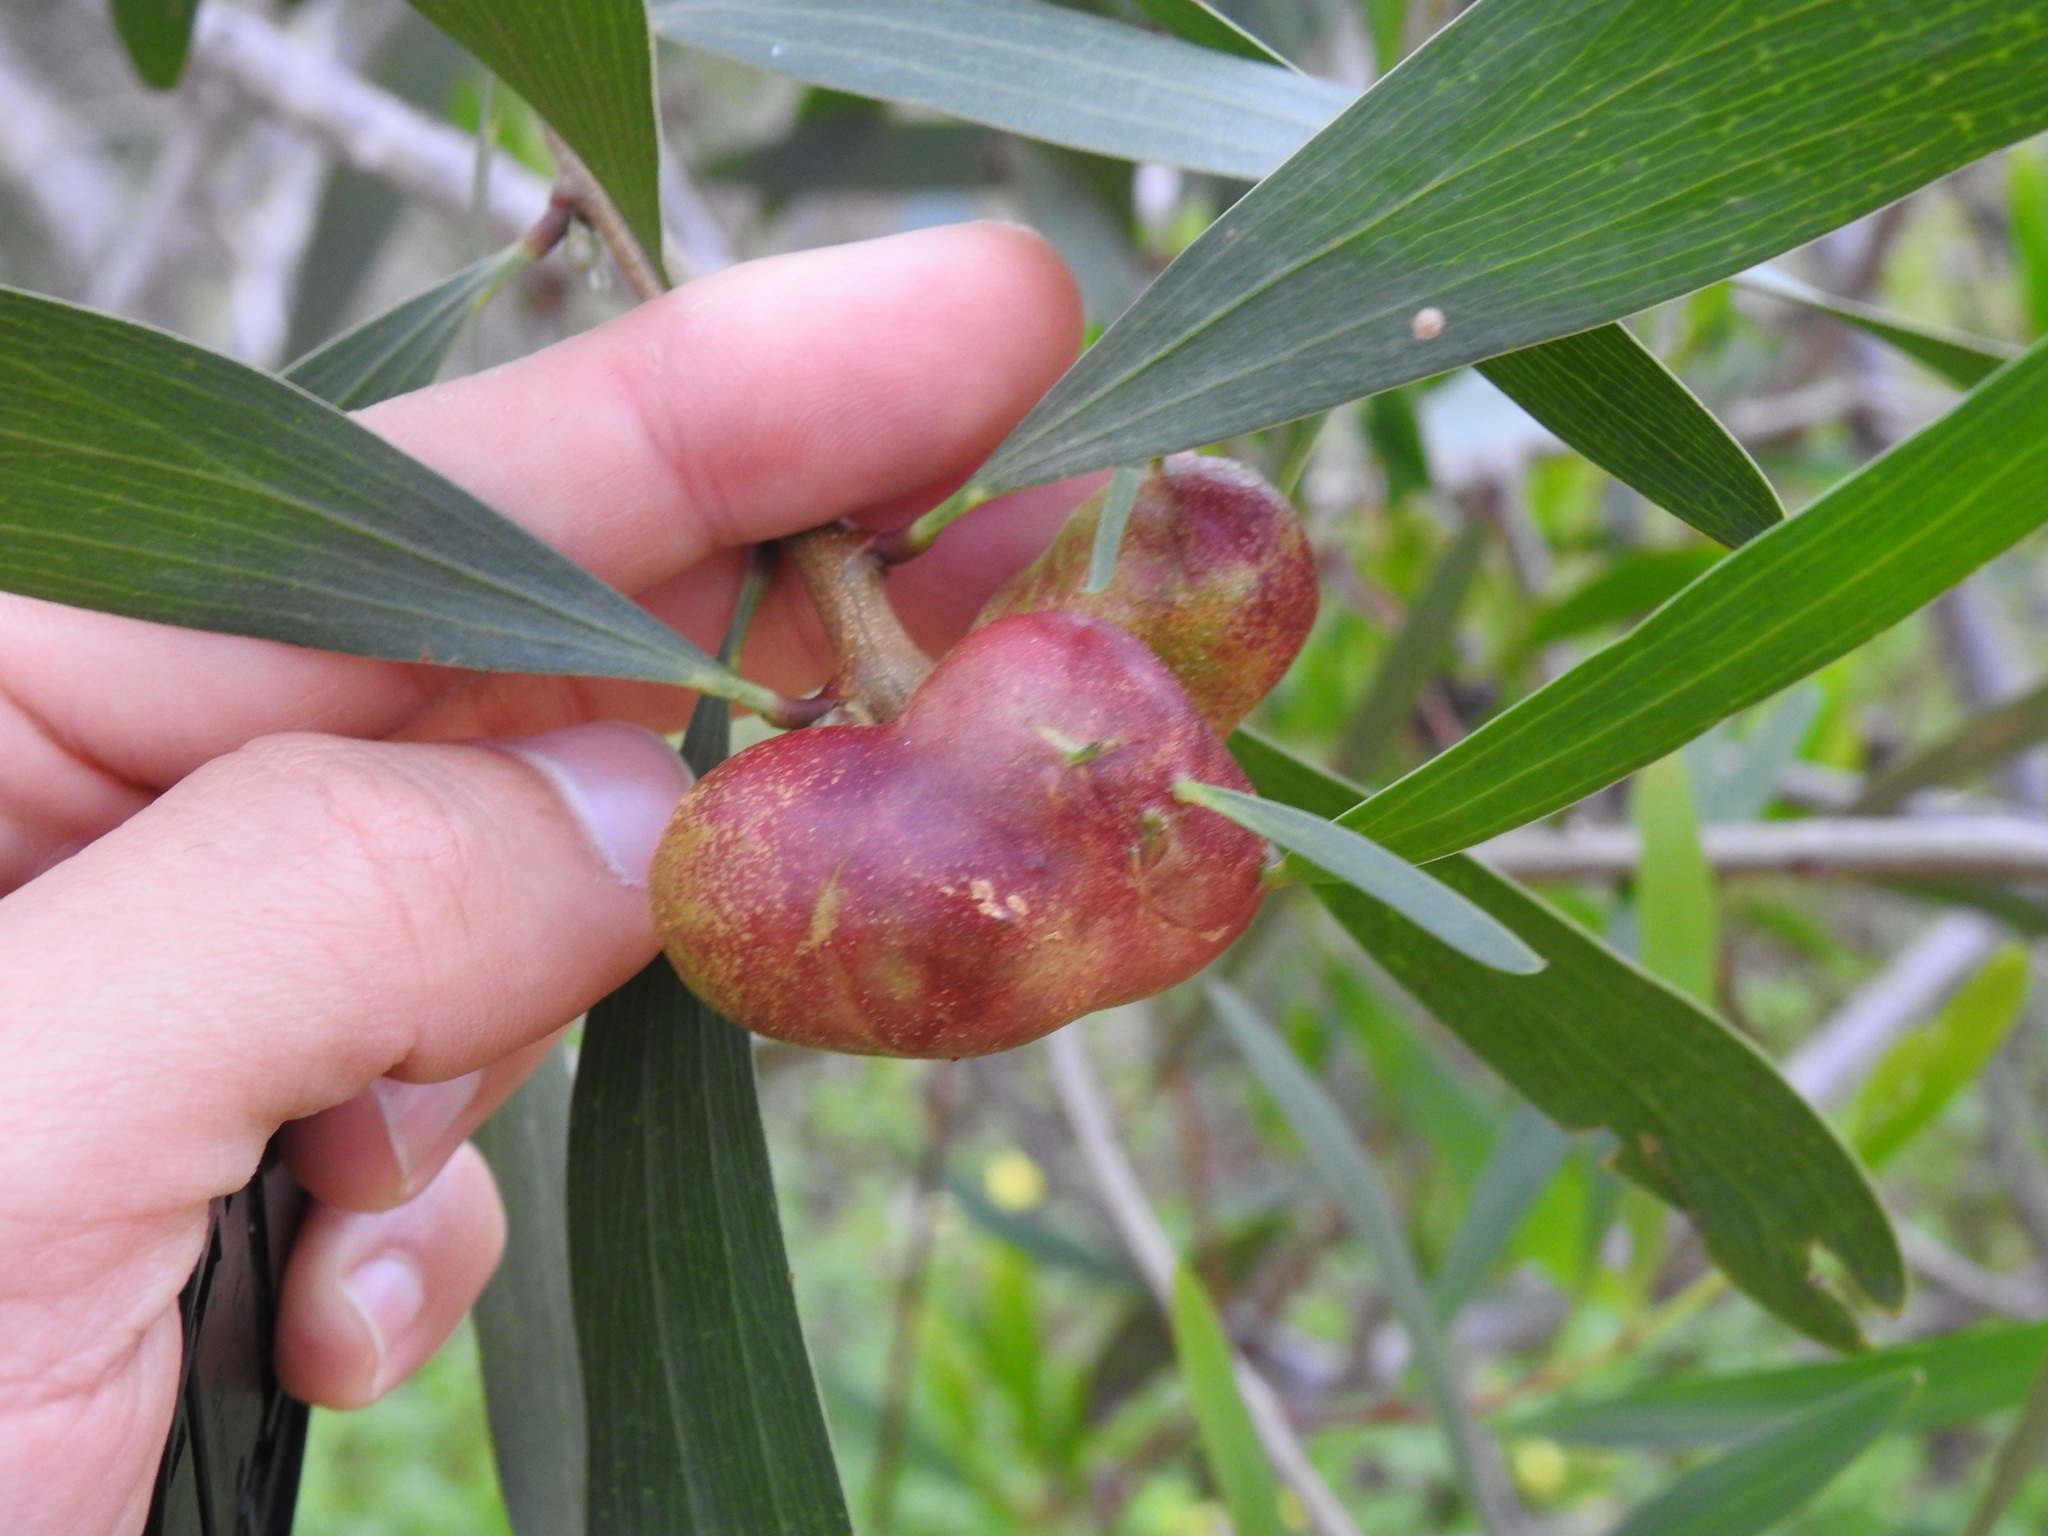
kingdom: Animalia
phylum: Arthropoda
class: Insecta
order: Hymenoptera
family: Pteromalidae
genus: Trichilogaster
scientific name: Trichilogaster acaciaelongifoliae
